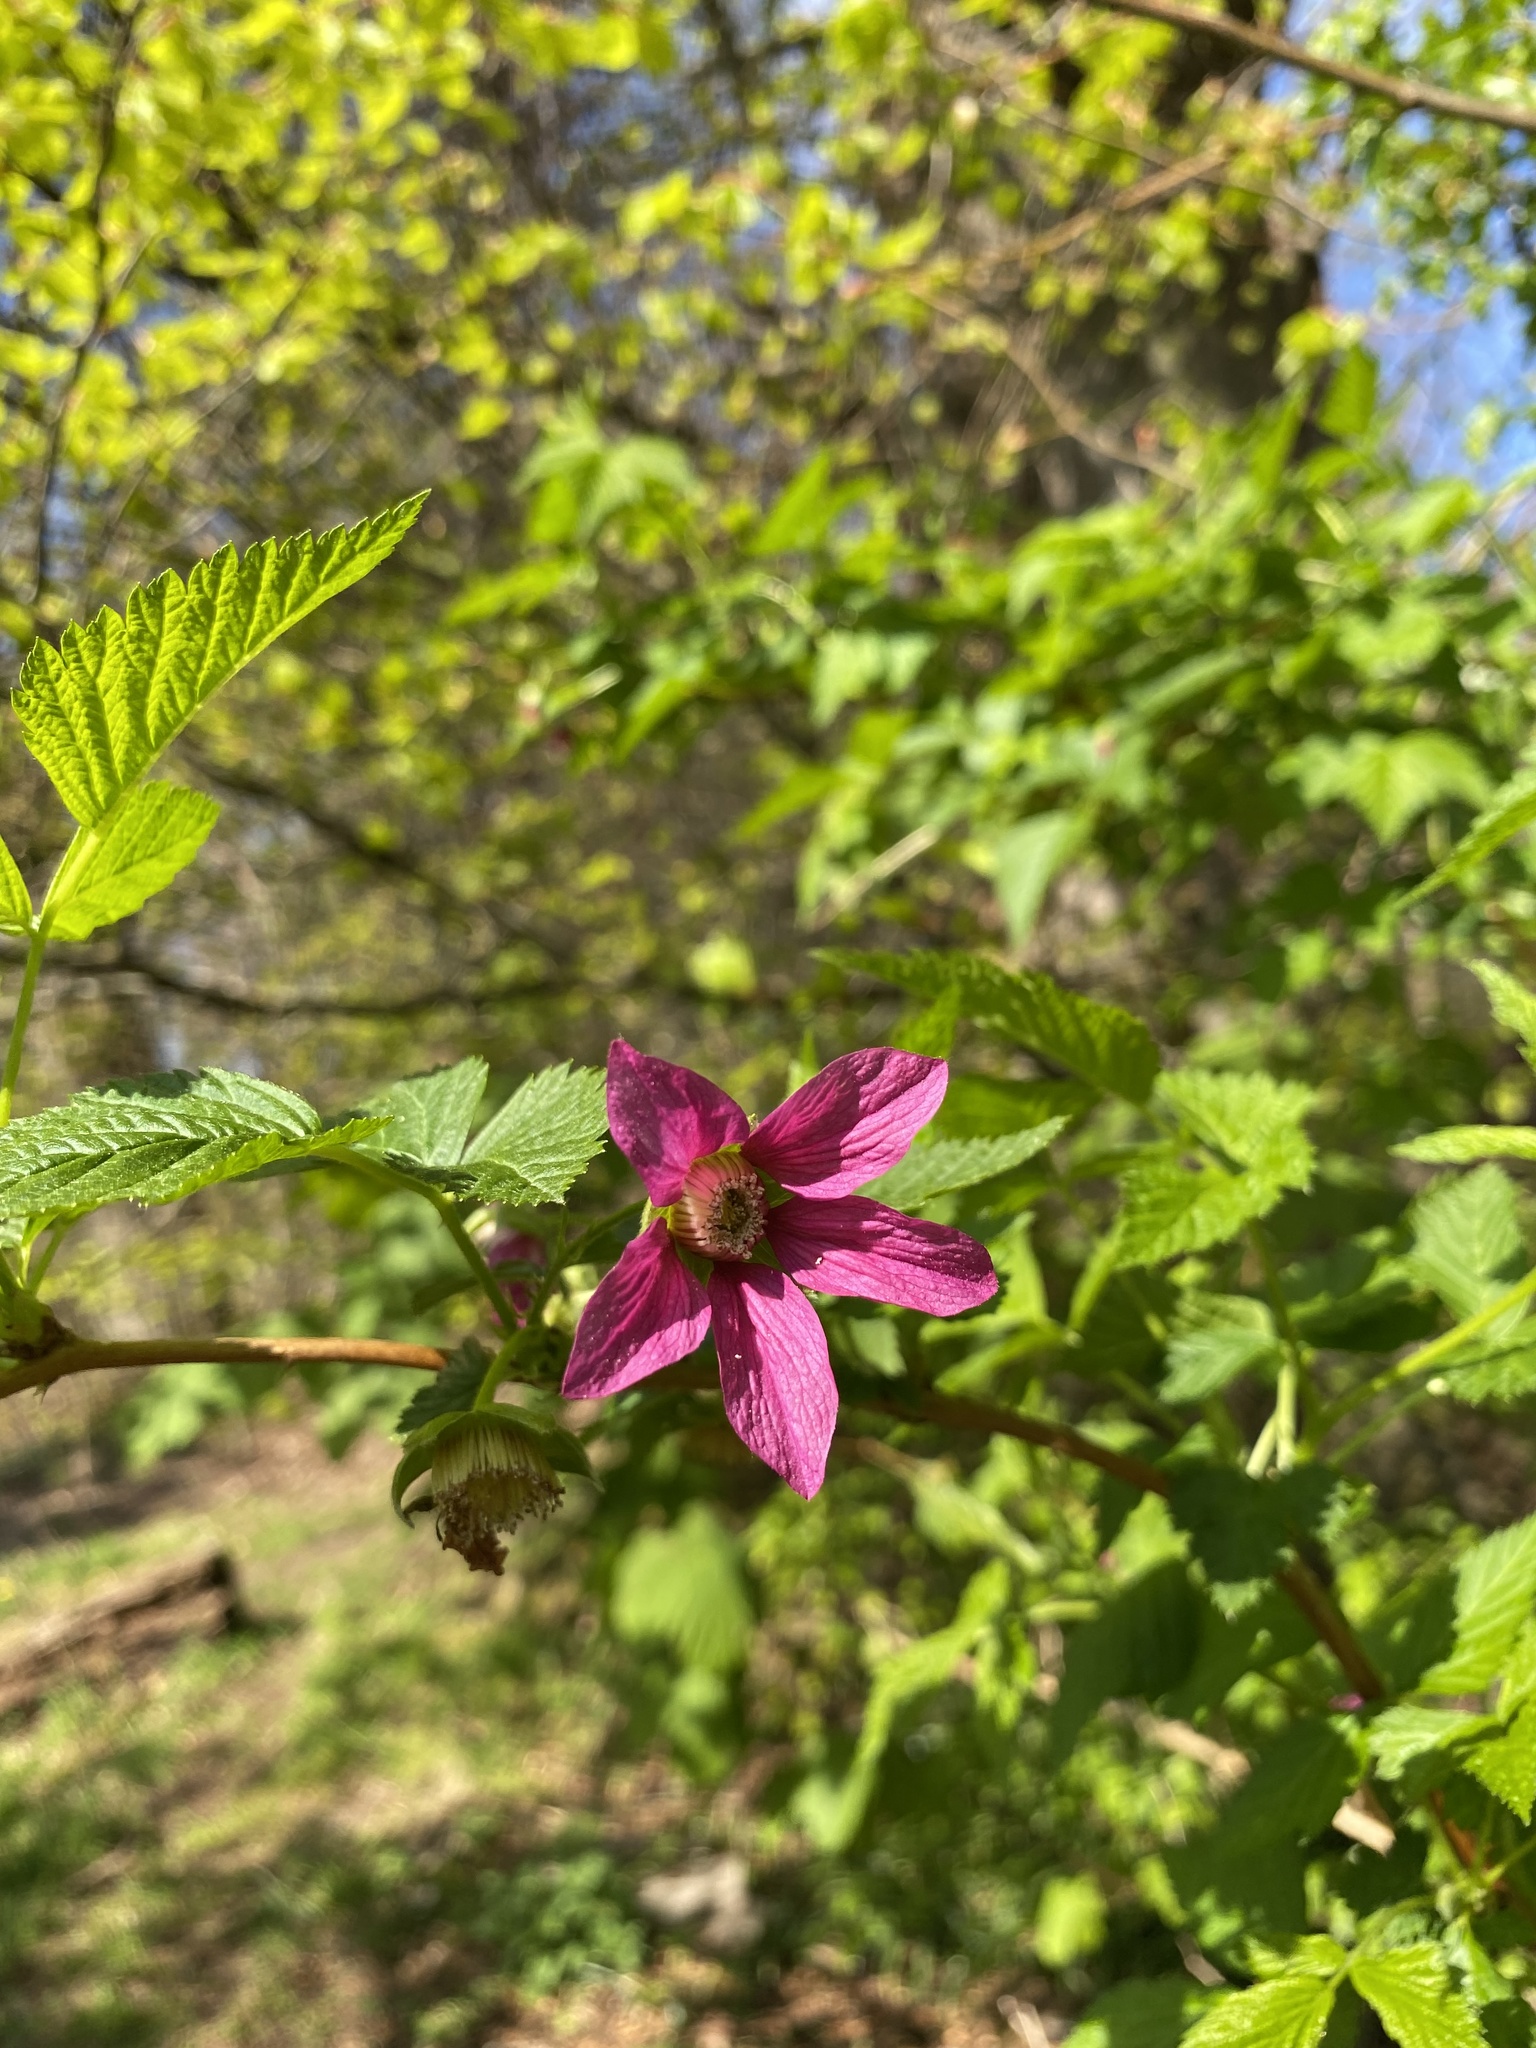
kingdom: Plantae
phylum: Tracheophyta
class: Magnoliopsida
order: Rosales
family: Rosaceae
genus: Rubus
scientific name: Rubus spectabilis
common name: Salmonberry
